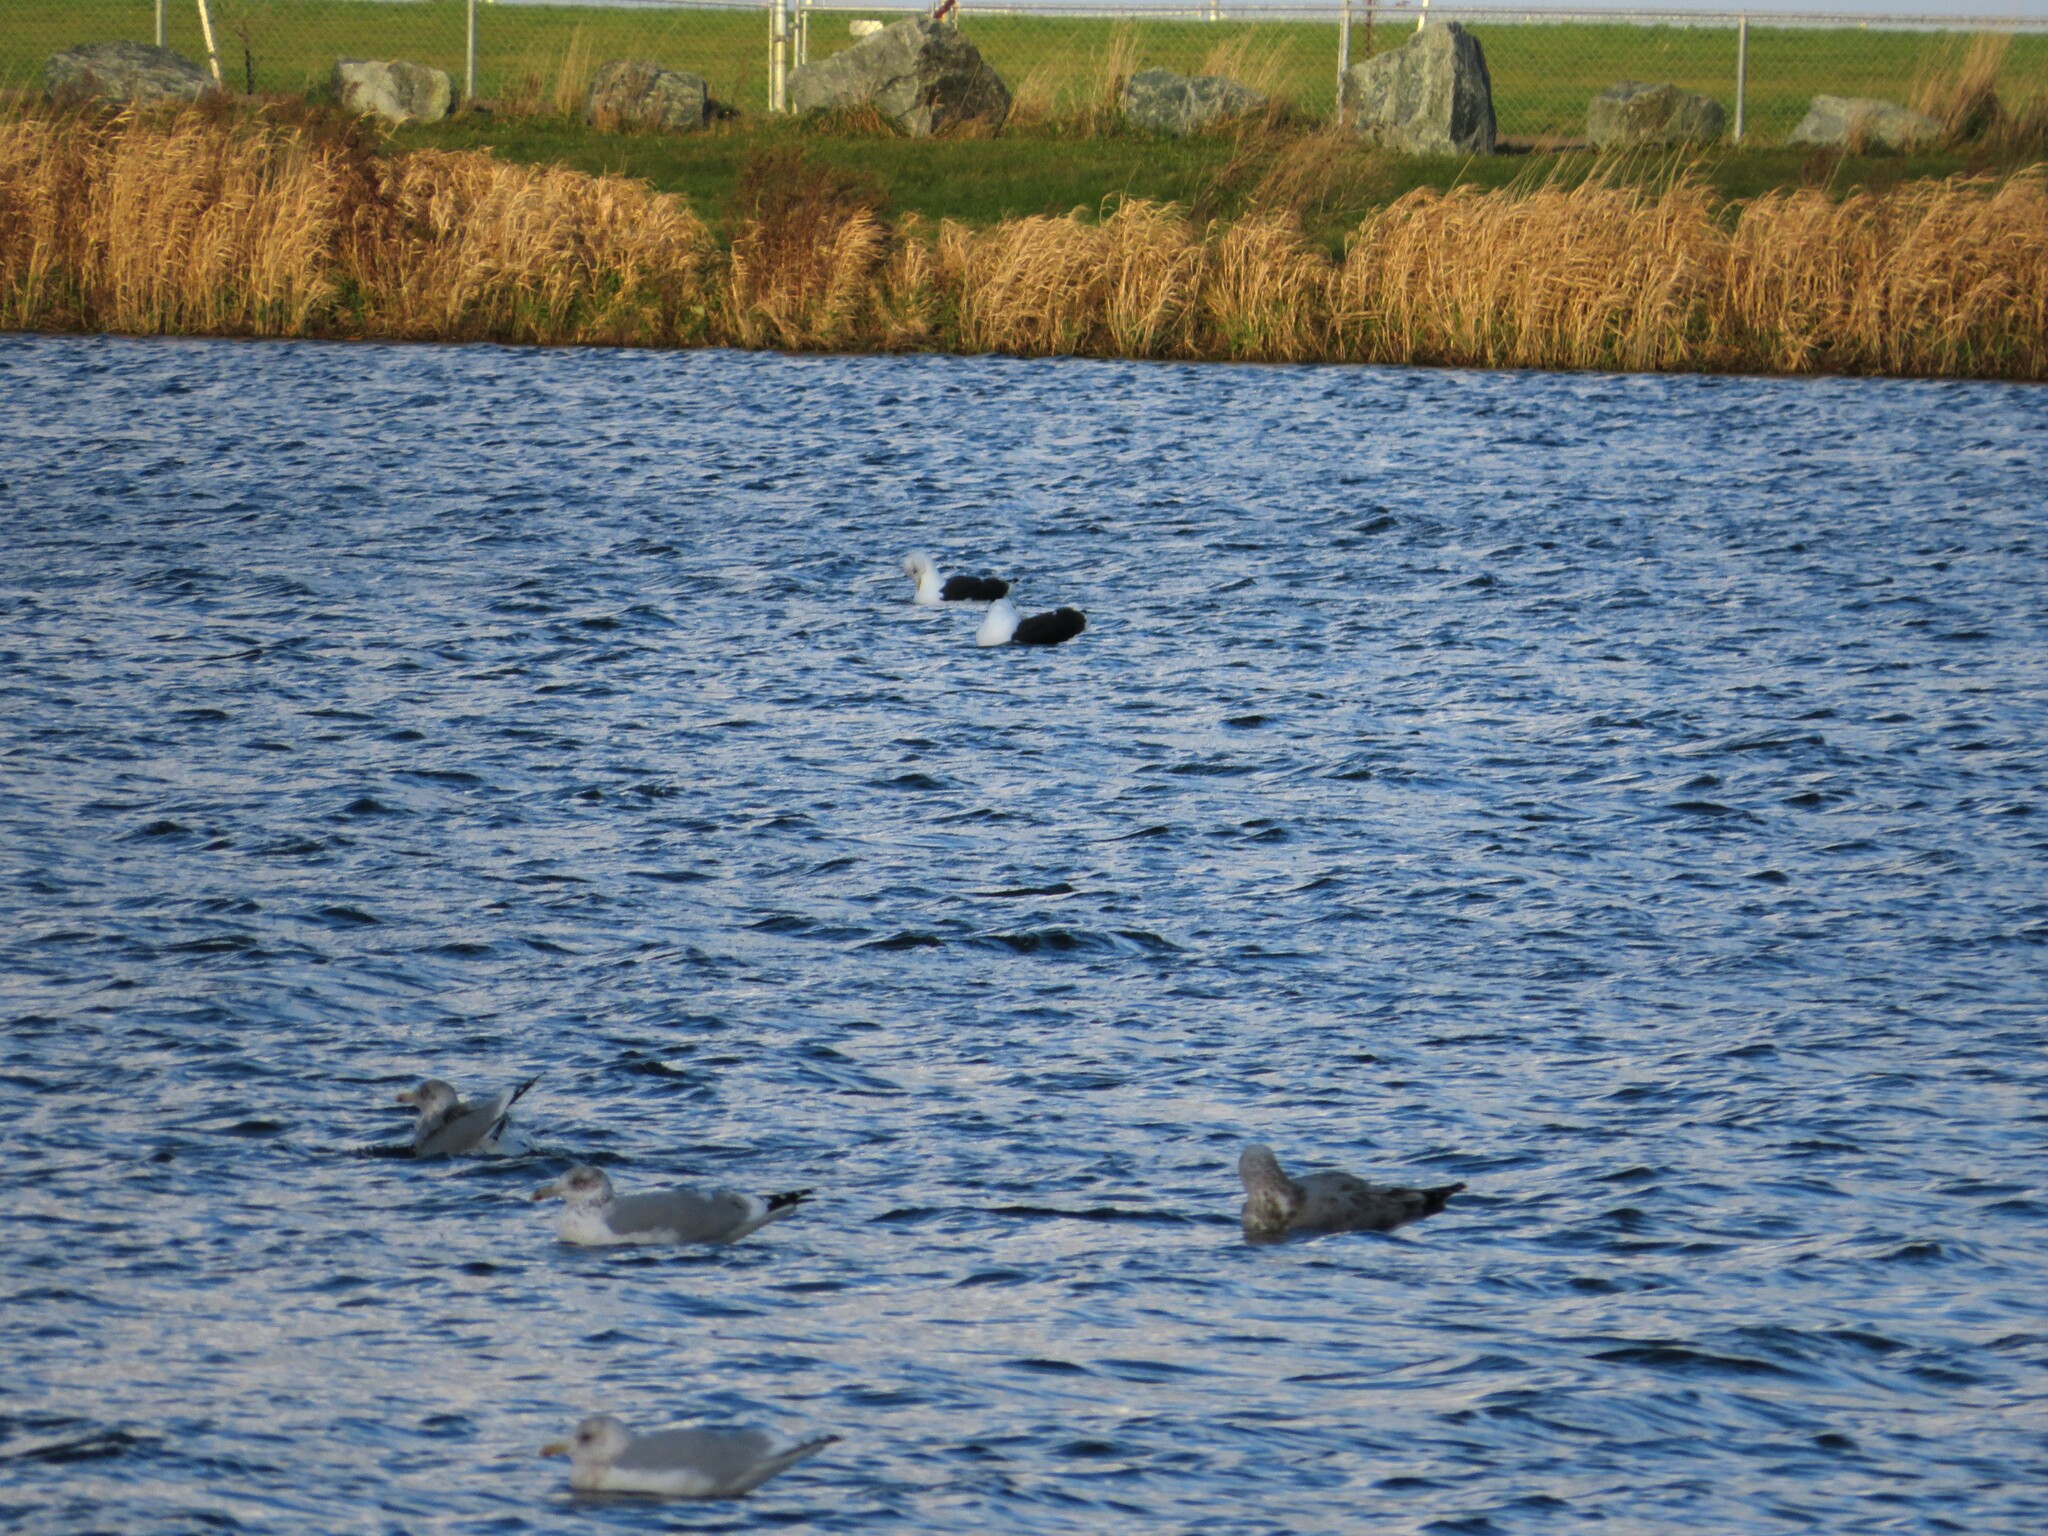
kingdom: Animalia
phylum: Chordata
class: Aves
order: Charadriiformes
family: Laridae
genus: Larus
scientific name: Larus marinus
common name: Great black-backed gull
